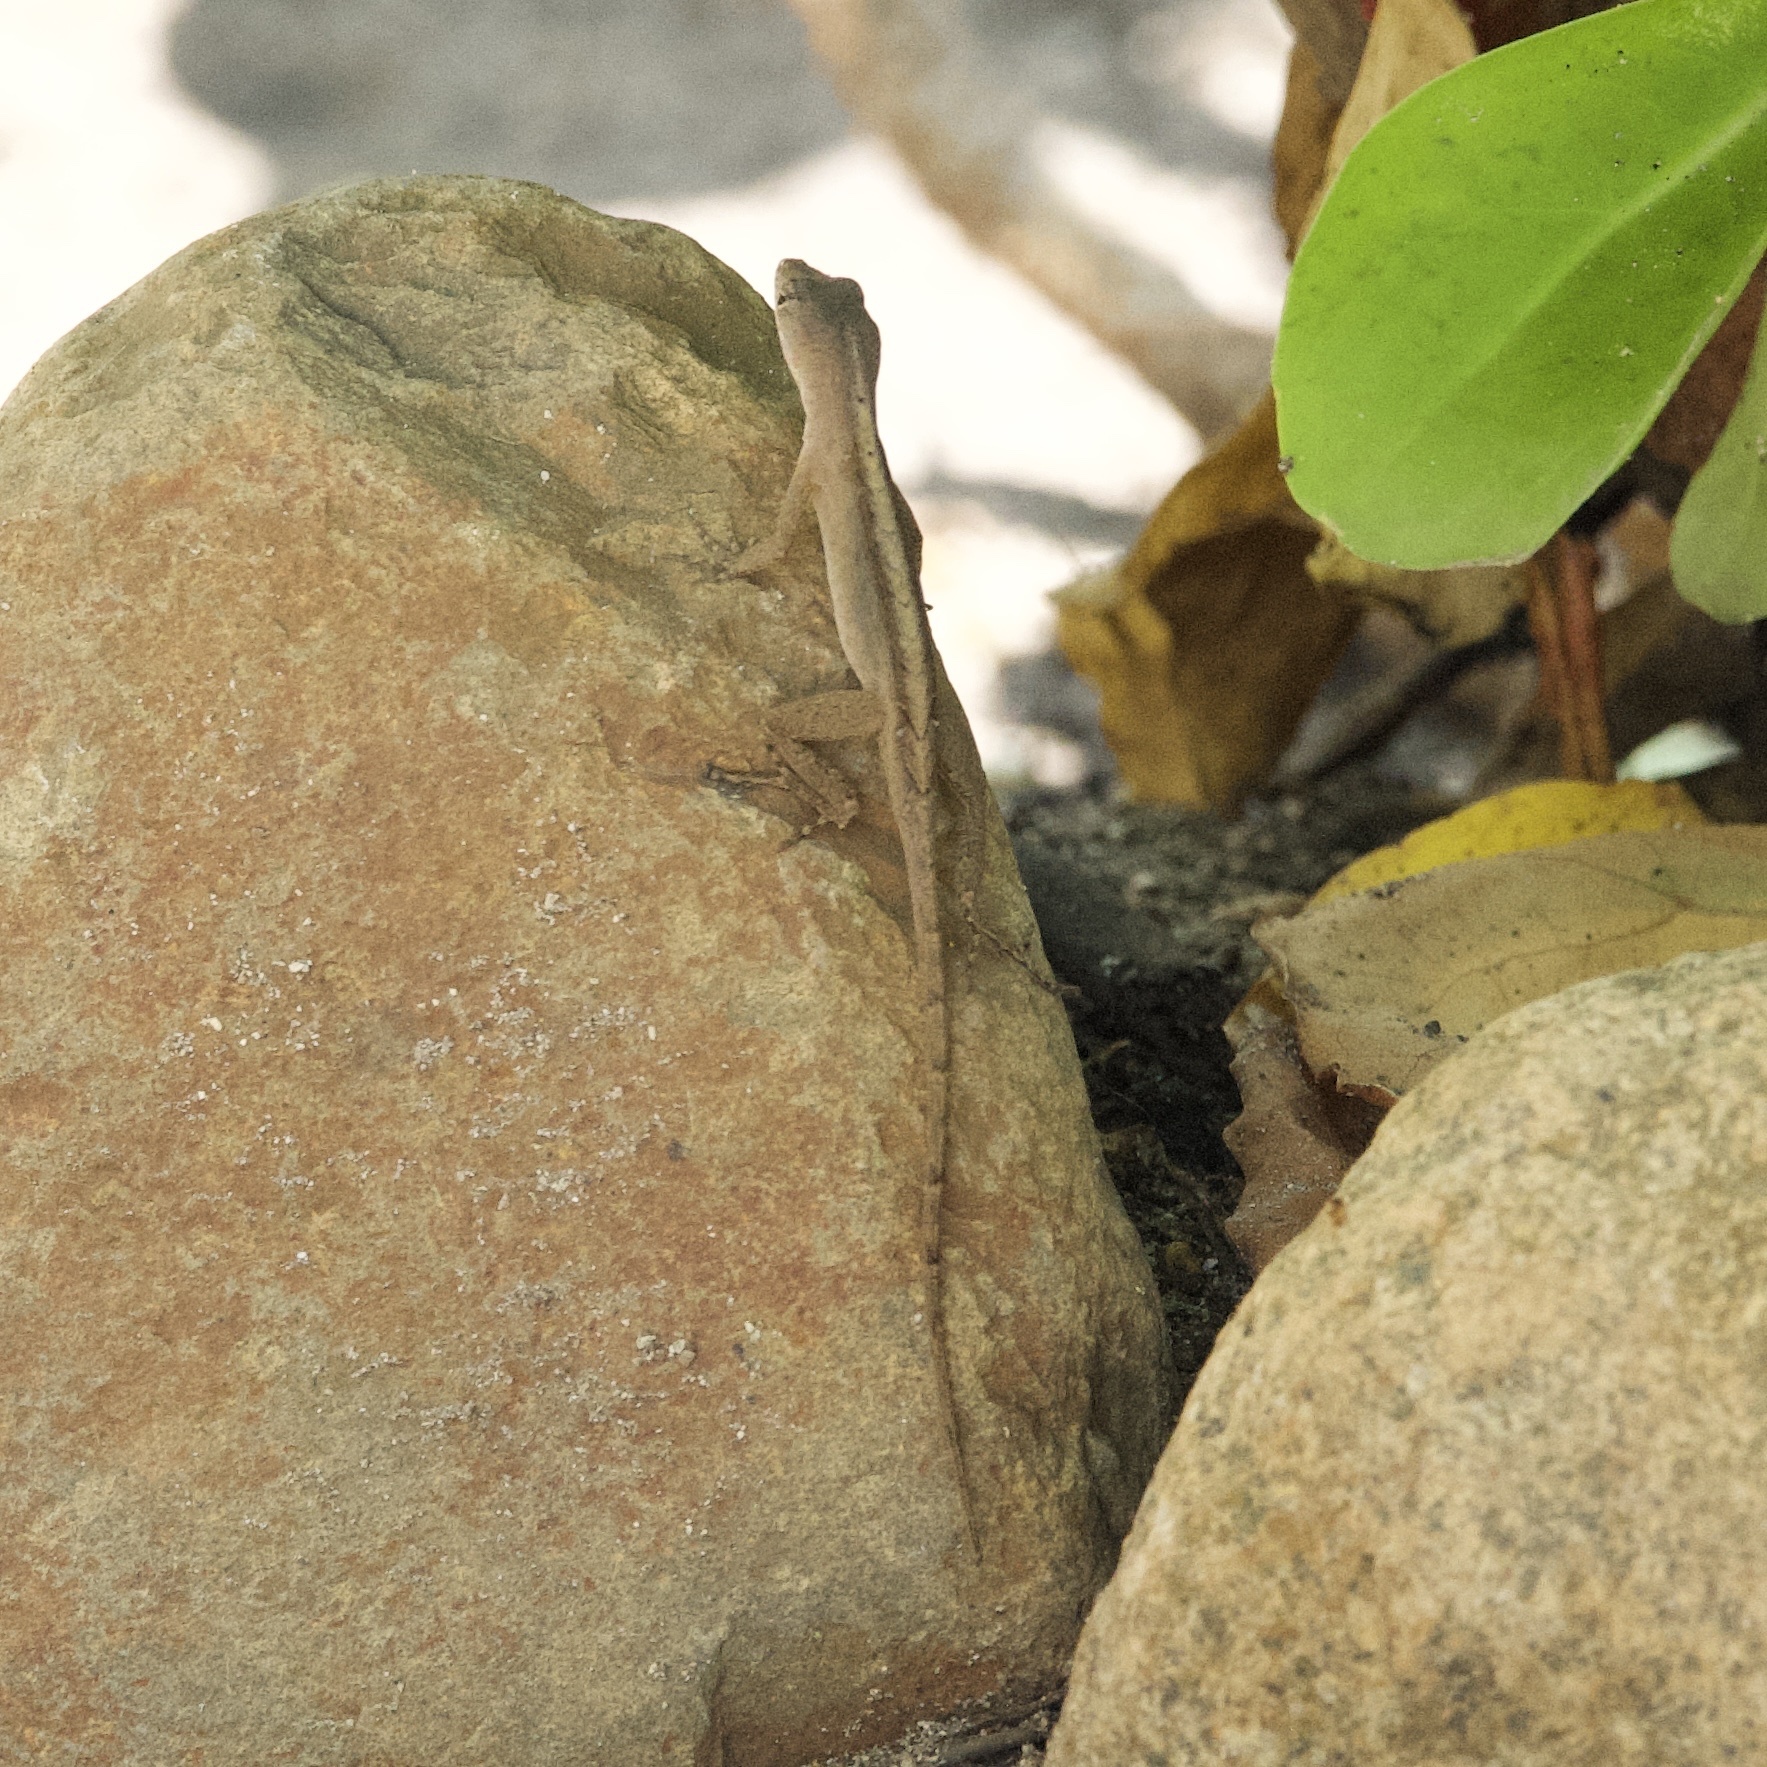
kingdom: Animalia
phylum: Chordata
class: Squamata
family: Dactyloidae
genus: Anolis
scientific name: Anolis sagrei
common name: Brown anole
